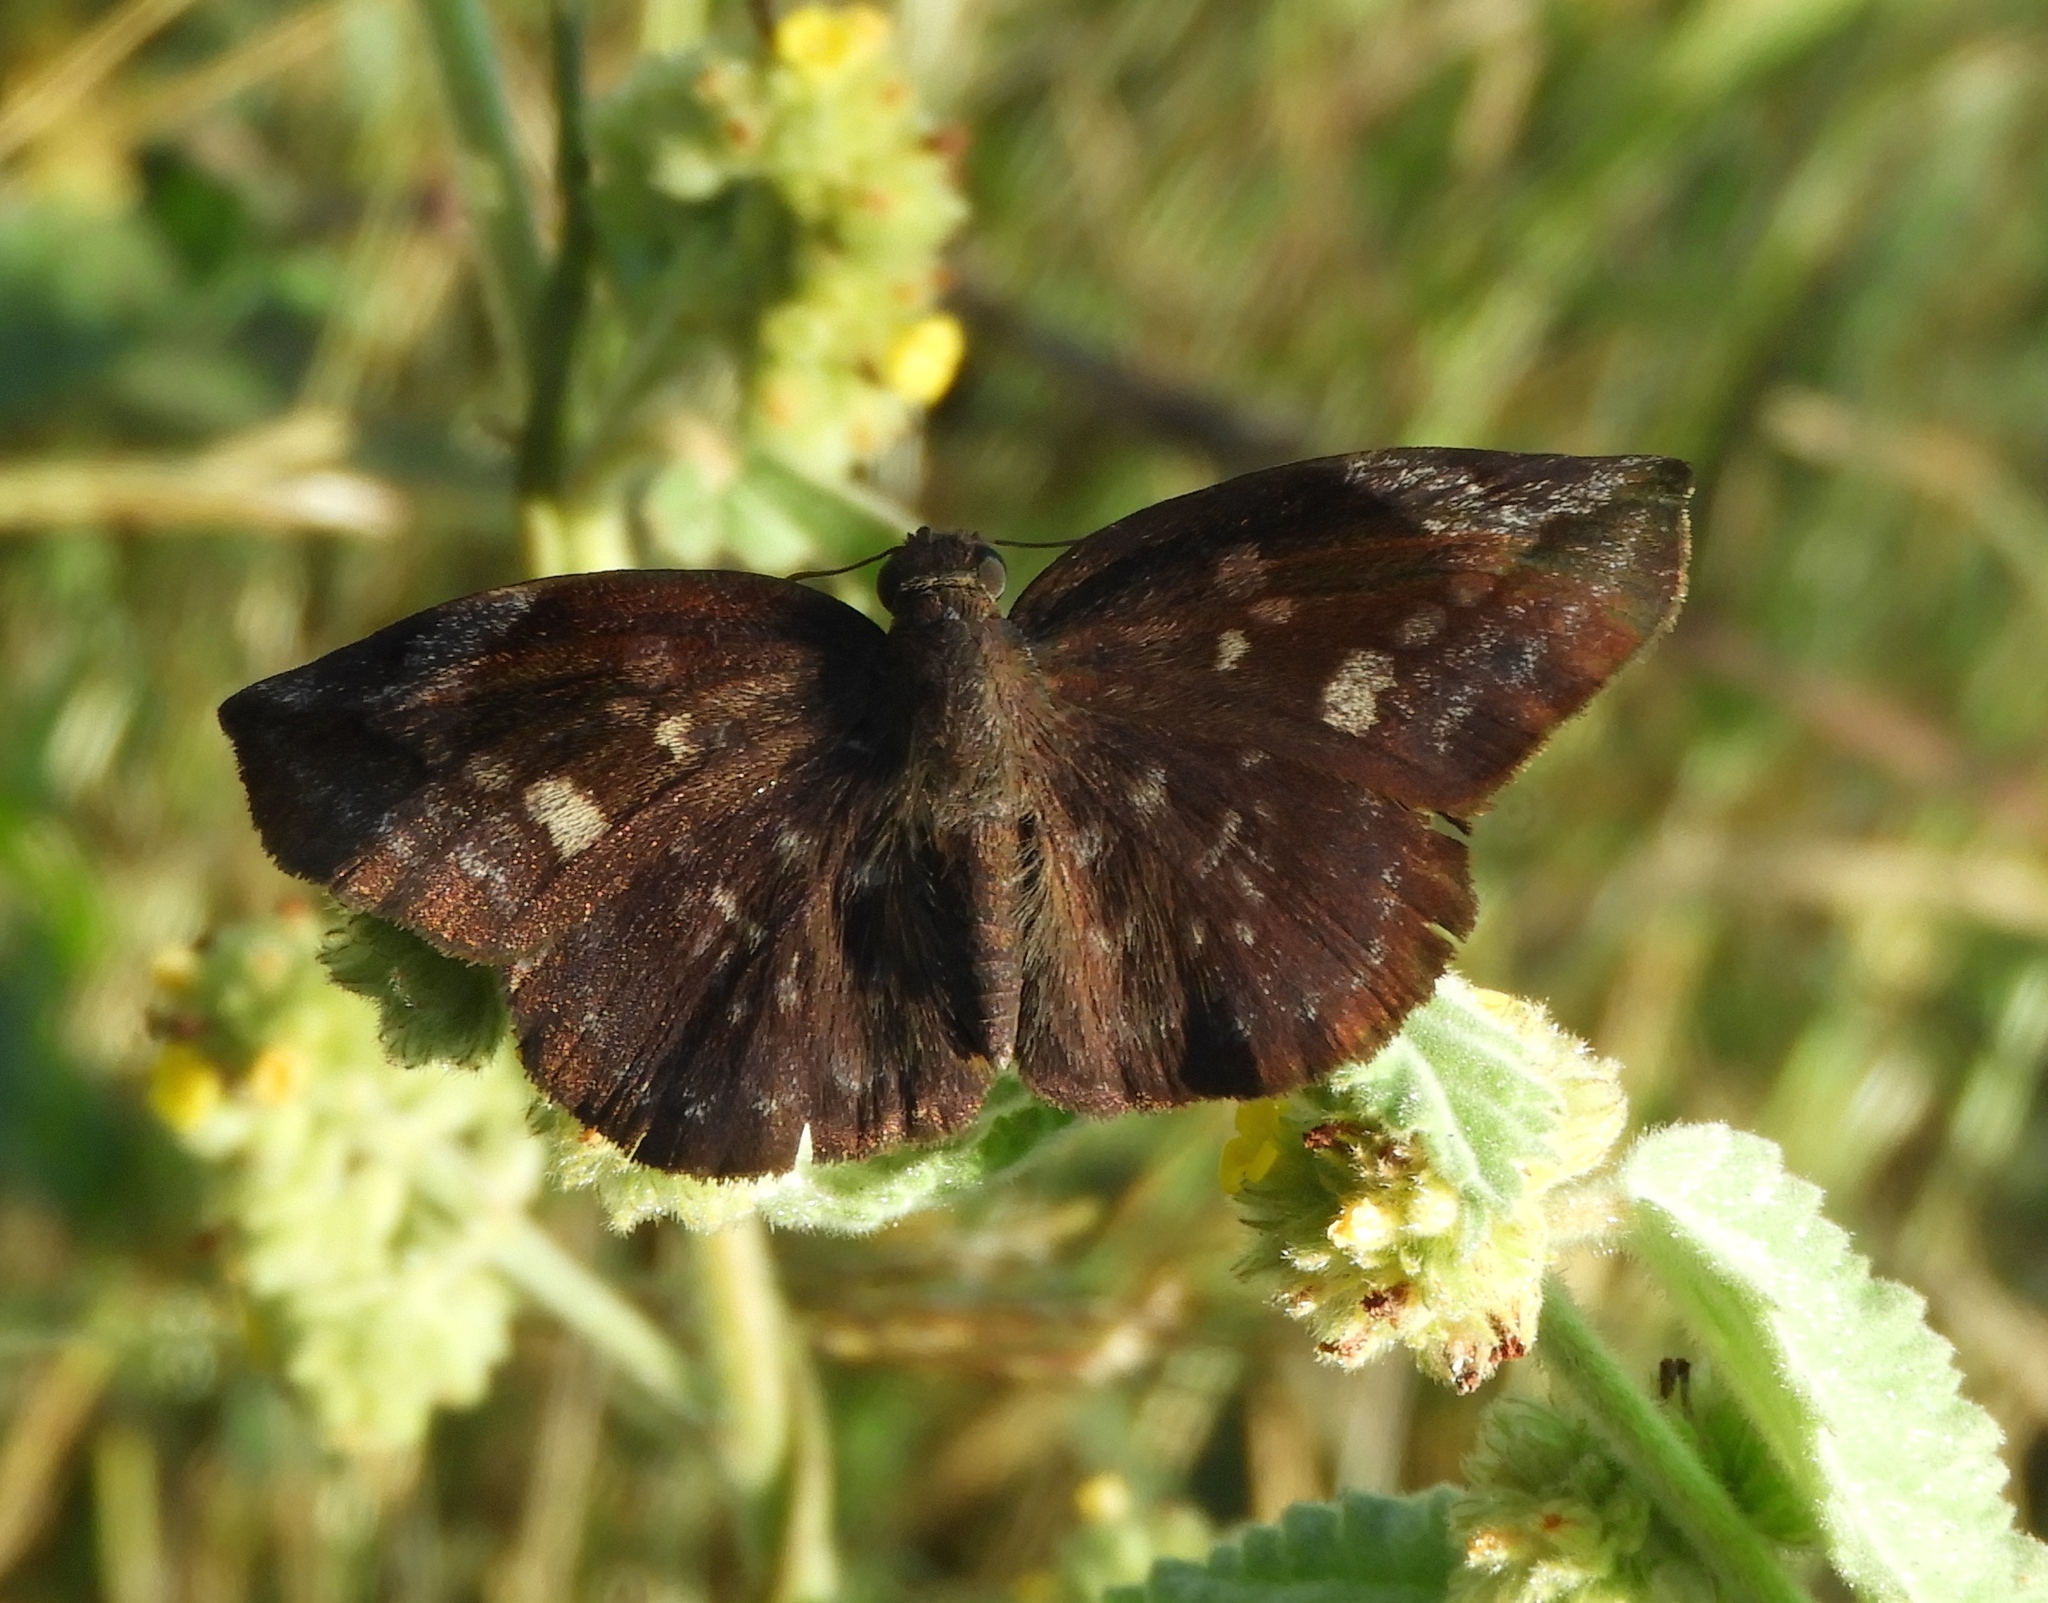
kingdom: Animalia
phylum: Arthropoda
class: Insecta
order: Lepidoptera
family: Hesperiidae
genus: Achlyodes
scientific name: Achlyodes thraso
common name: Sickle-winged skipper
